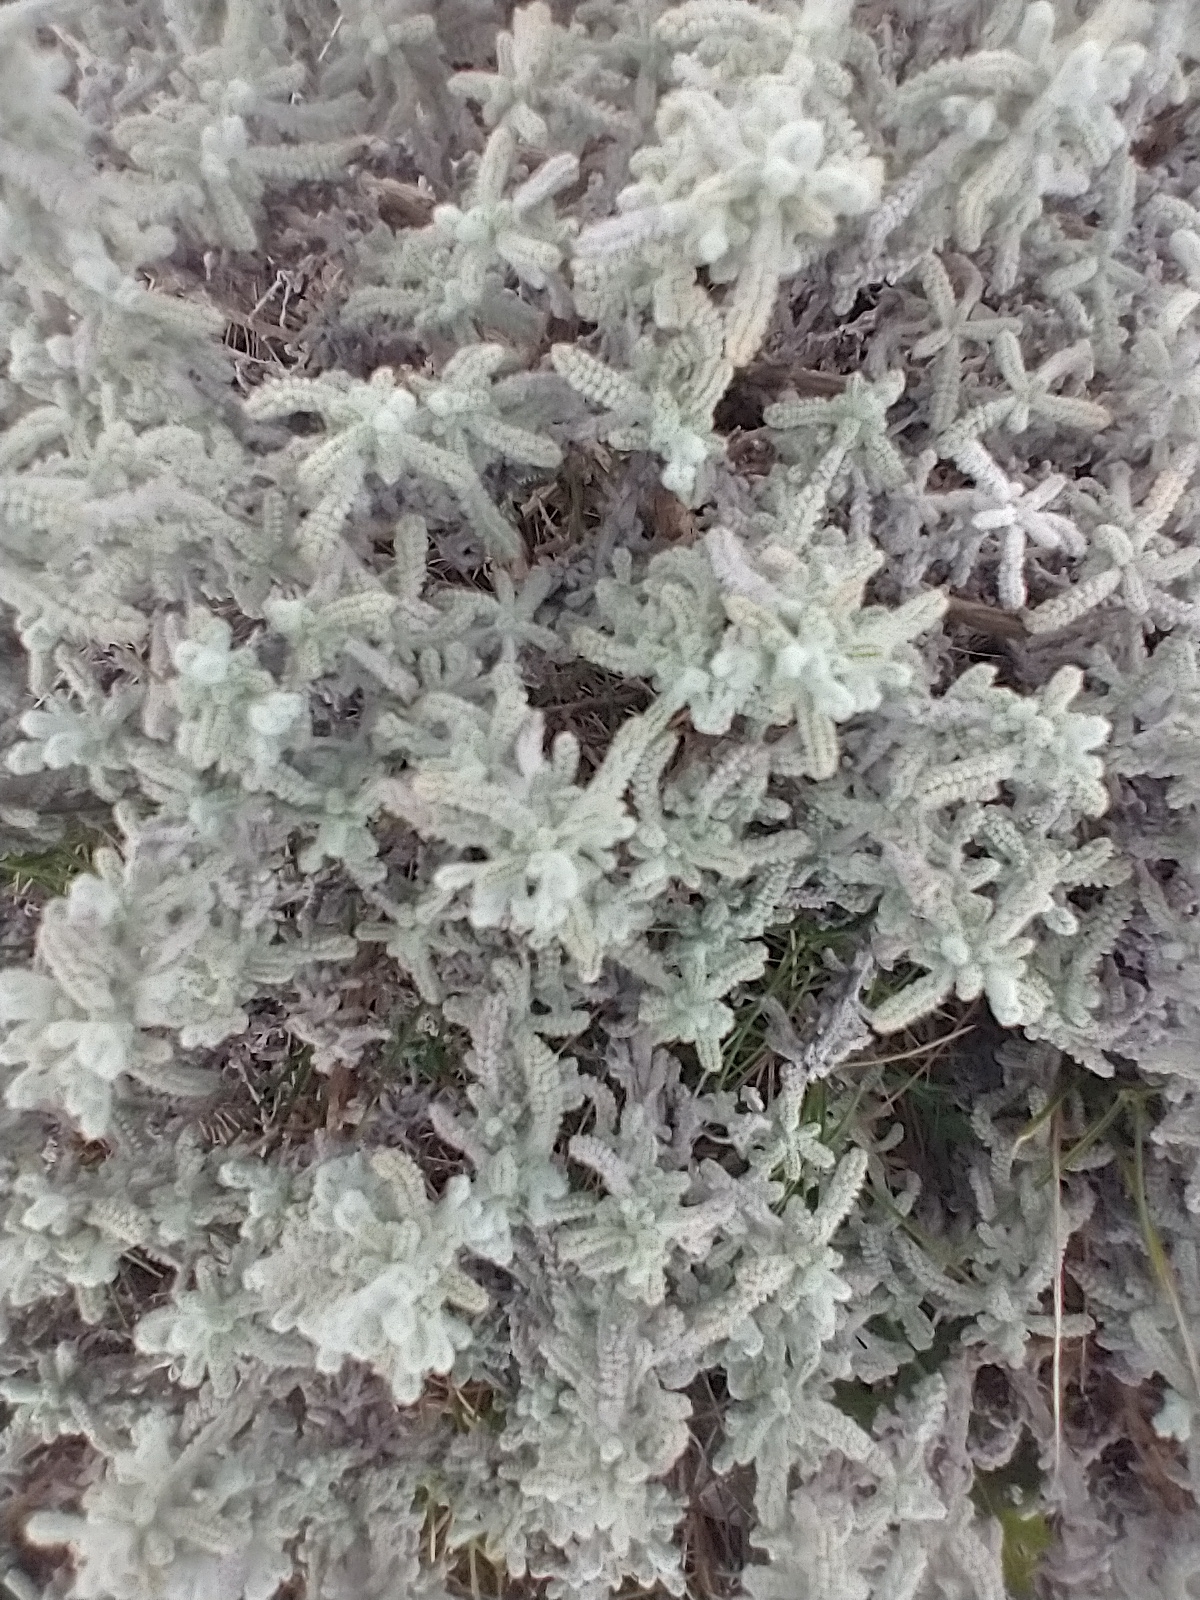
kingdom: Plantae
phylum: Tracheophyta
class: Magnoliopsida
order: Asterales
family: Asteraceae
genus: Santolina
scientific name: Santolina decumbens
